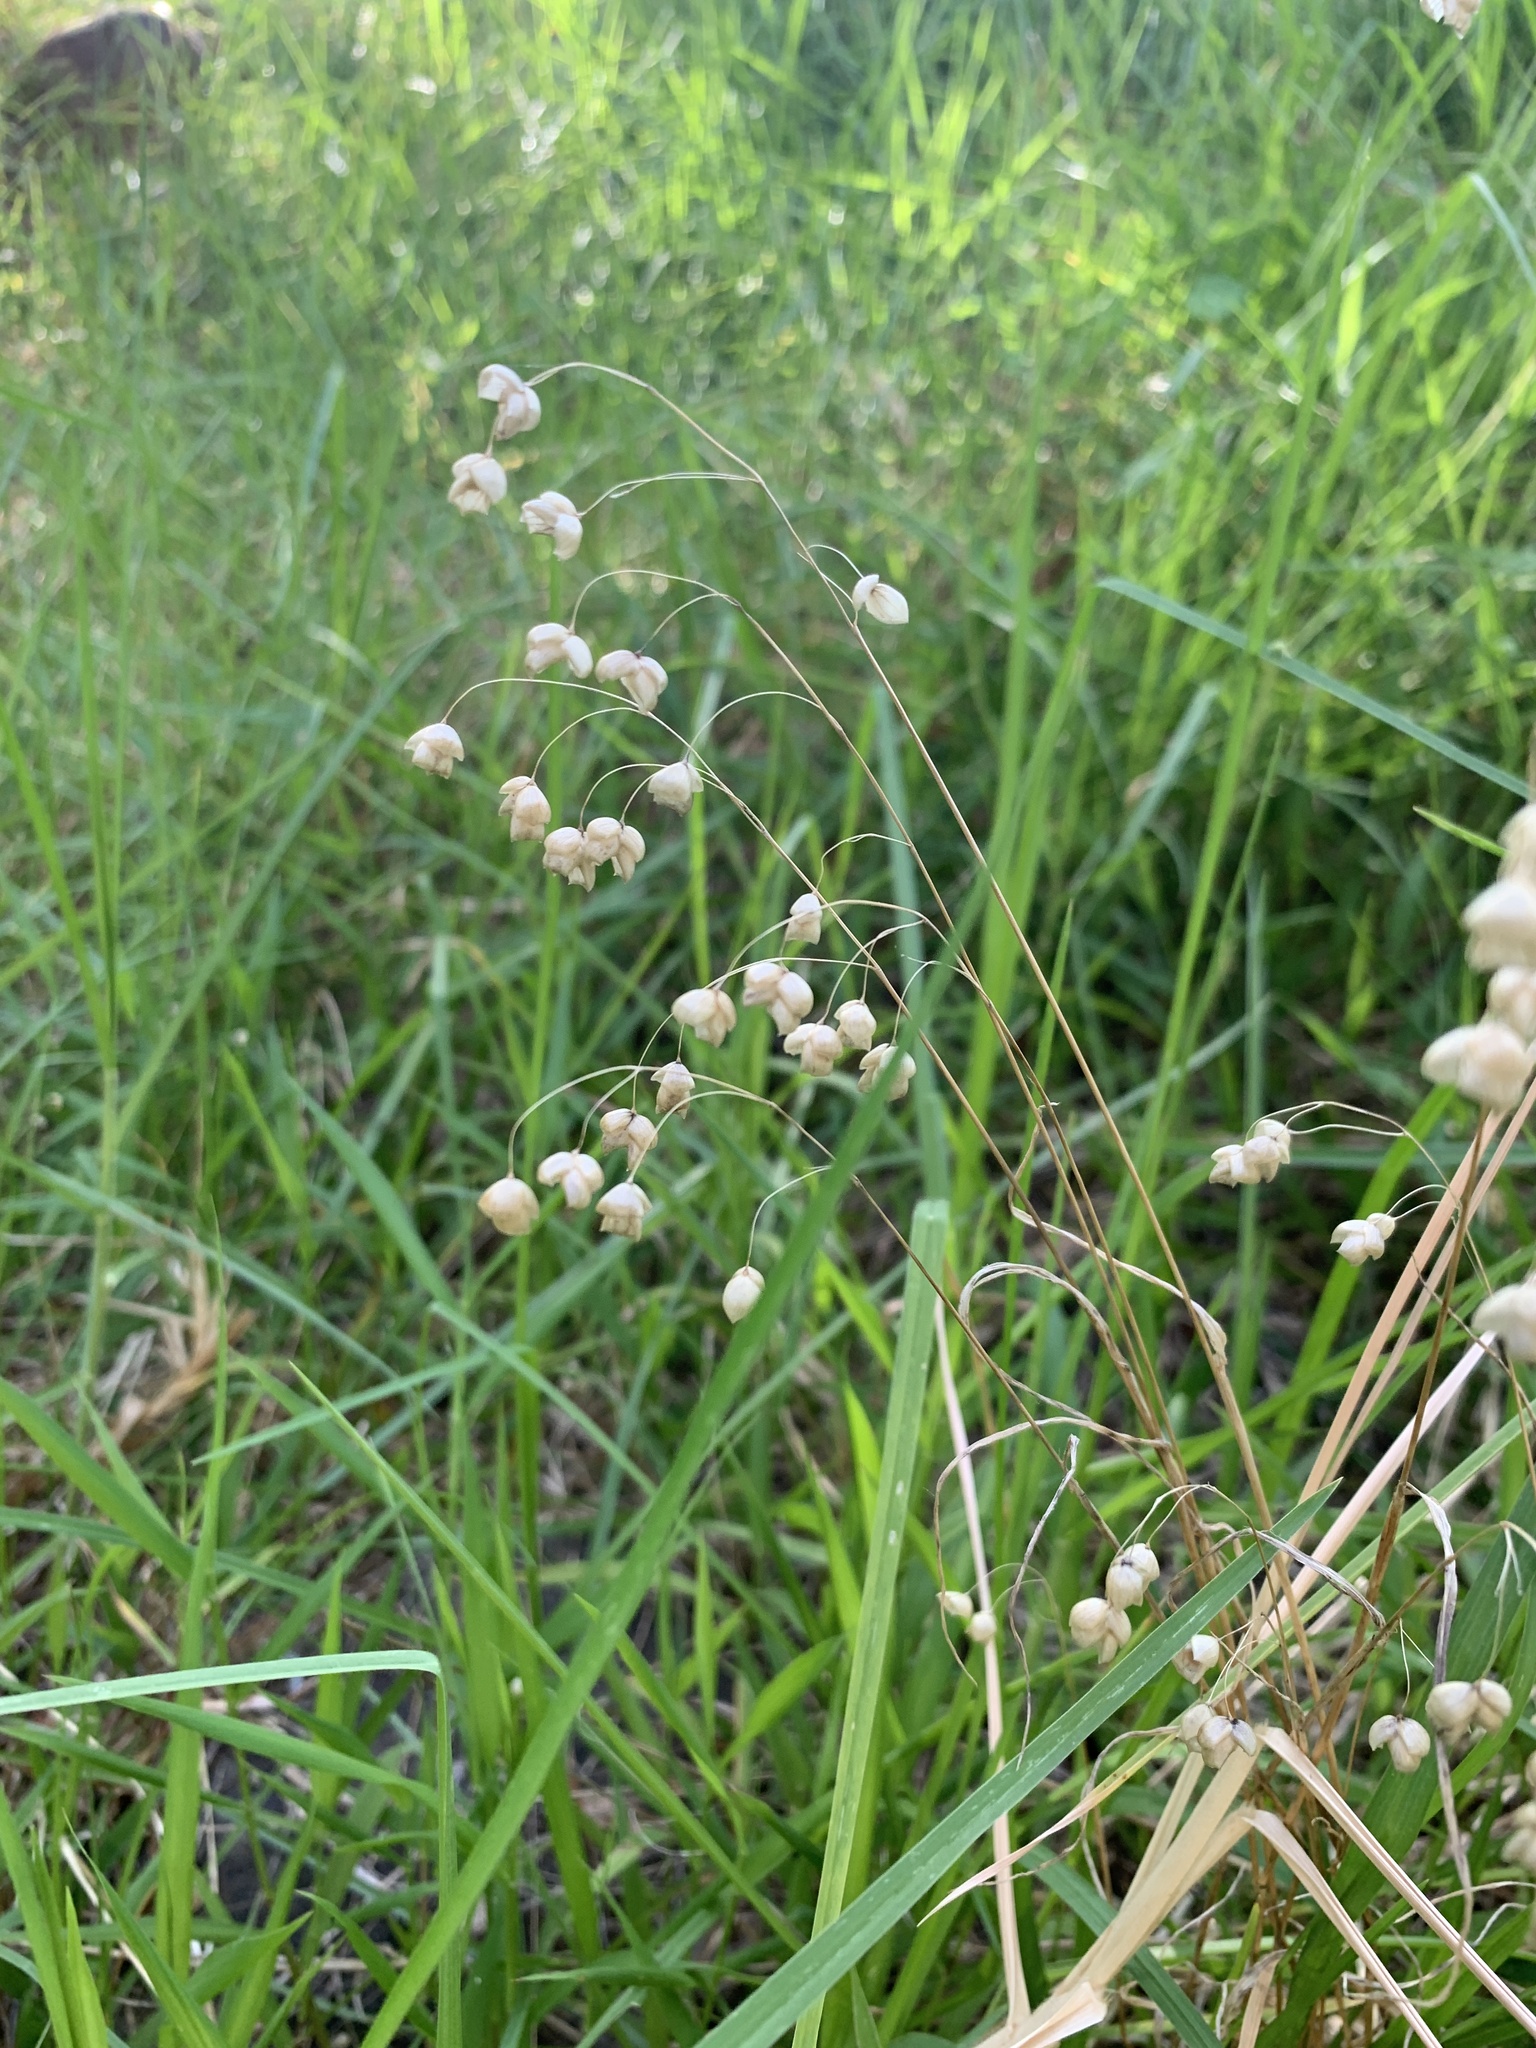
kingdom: Plantae
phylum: Tracheophyta
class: Liliopsida
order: Poales
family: Poaceae
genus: Briza
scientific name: Briza maxima
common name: Big quakinggrass
